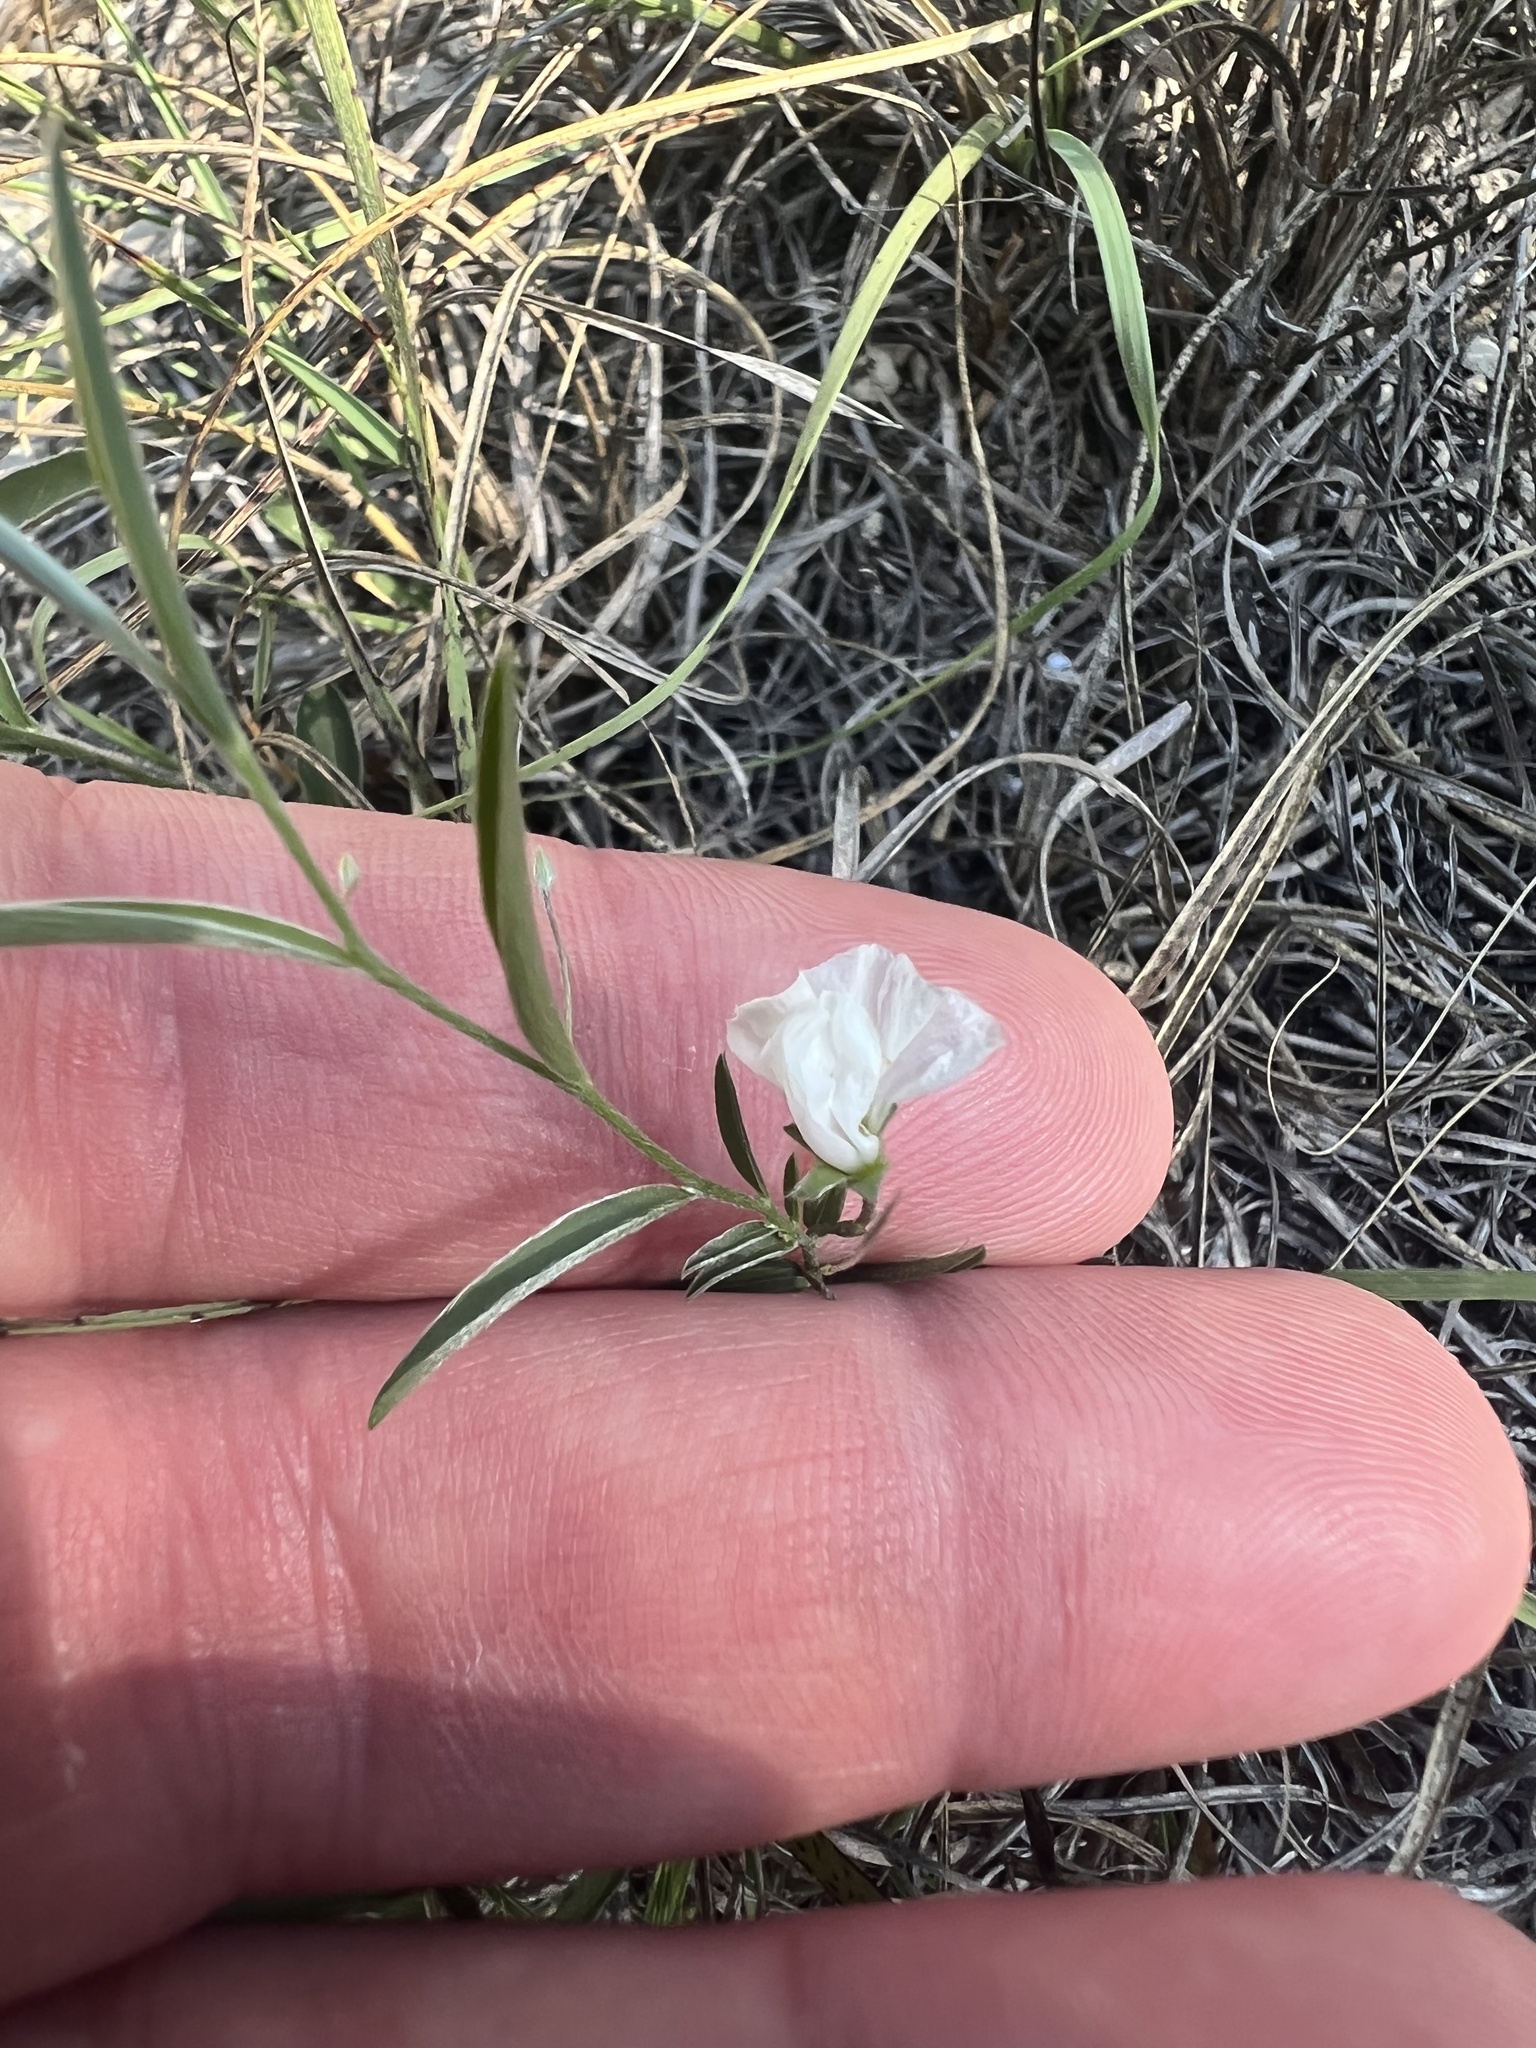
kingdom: Plantae
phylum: Tracheophyta
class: Magnoliopsida
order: Solanales
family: Convolvulaceae
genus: Evolvulus
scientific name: Evolvulus sericeus
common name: Blue dots
